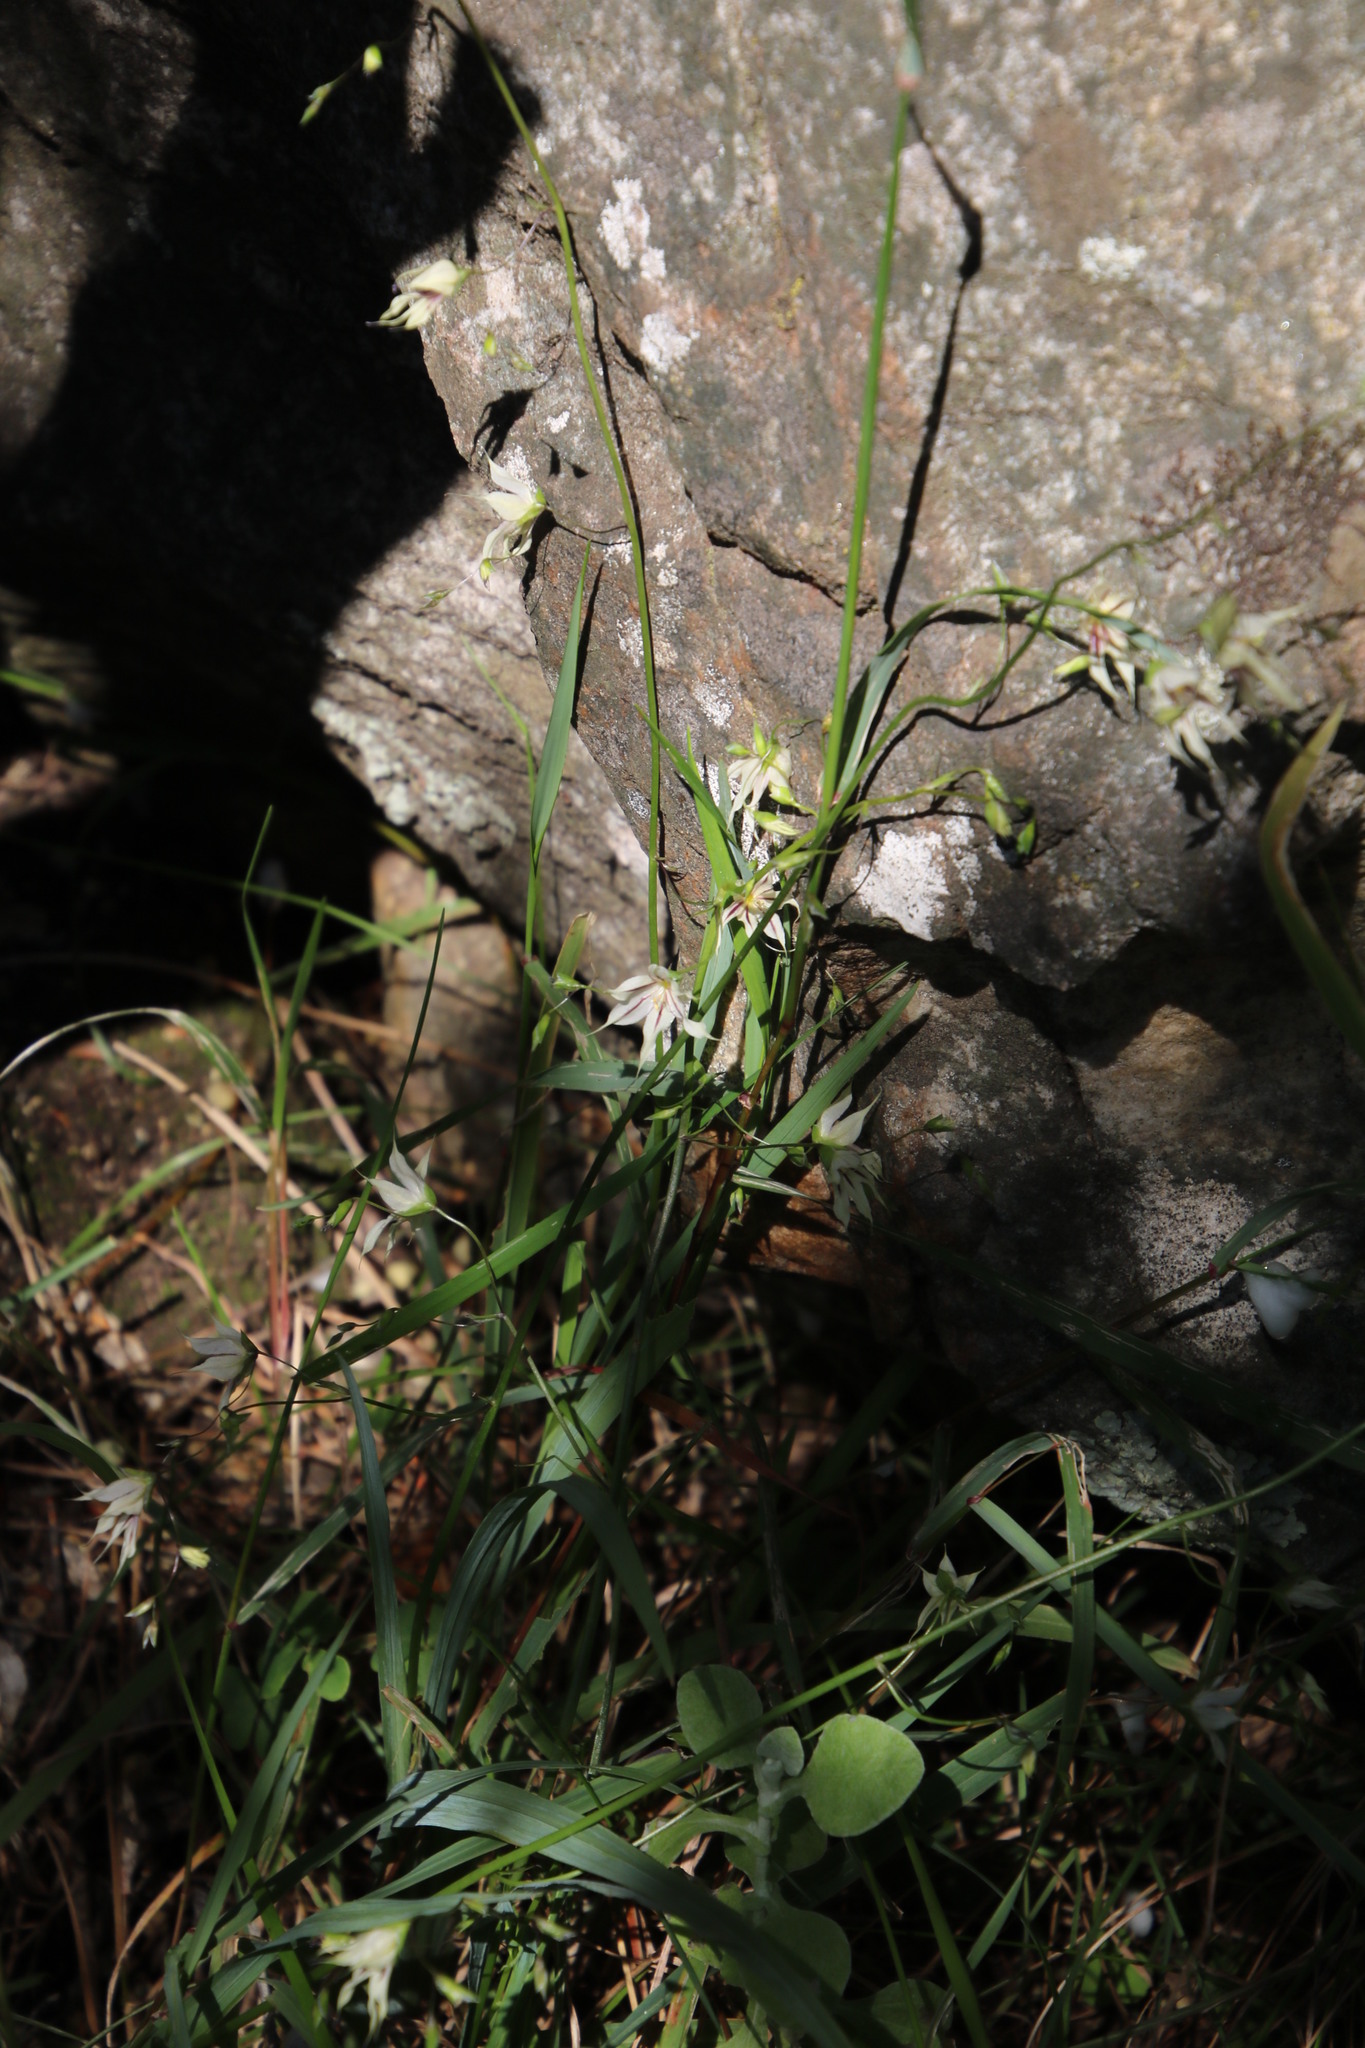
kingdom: Plantae
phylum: Tracheophyta
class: Liliopsida
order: Asparagales
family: Iridaceae
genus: Melasphaerula
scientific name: Melasphaerula graminea
